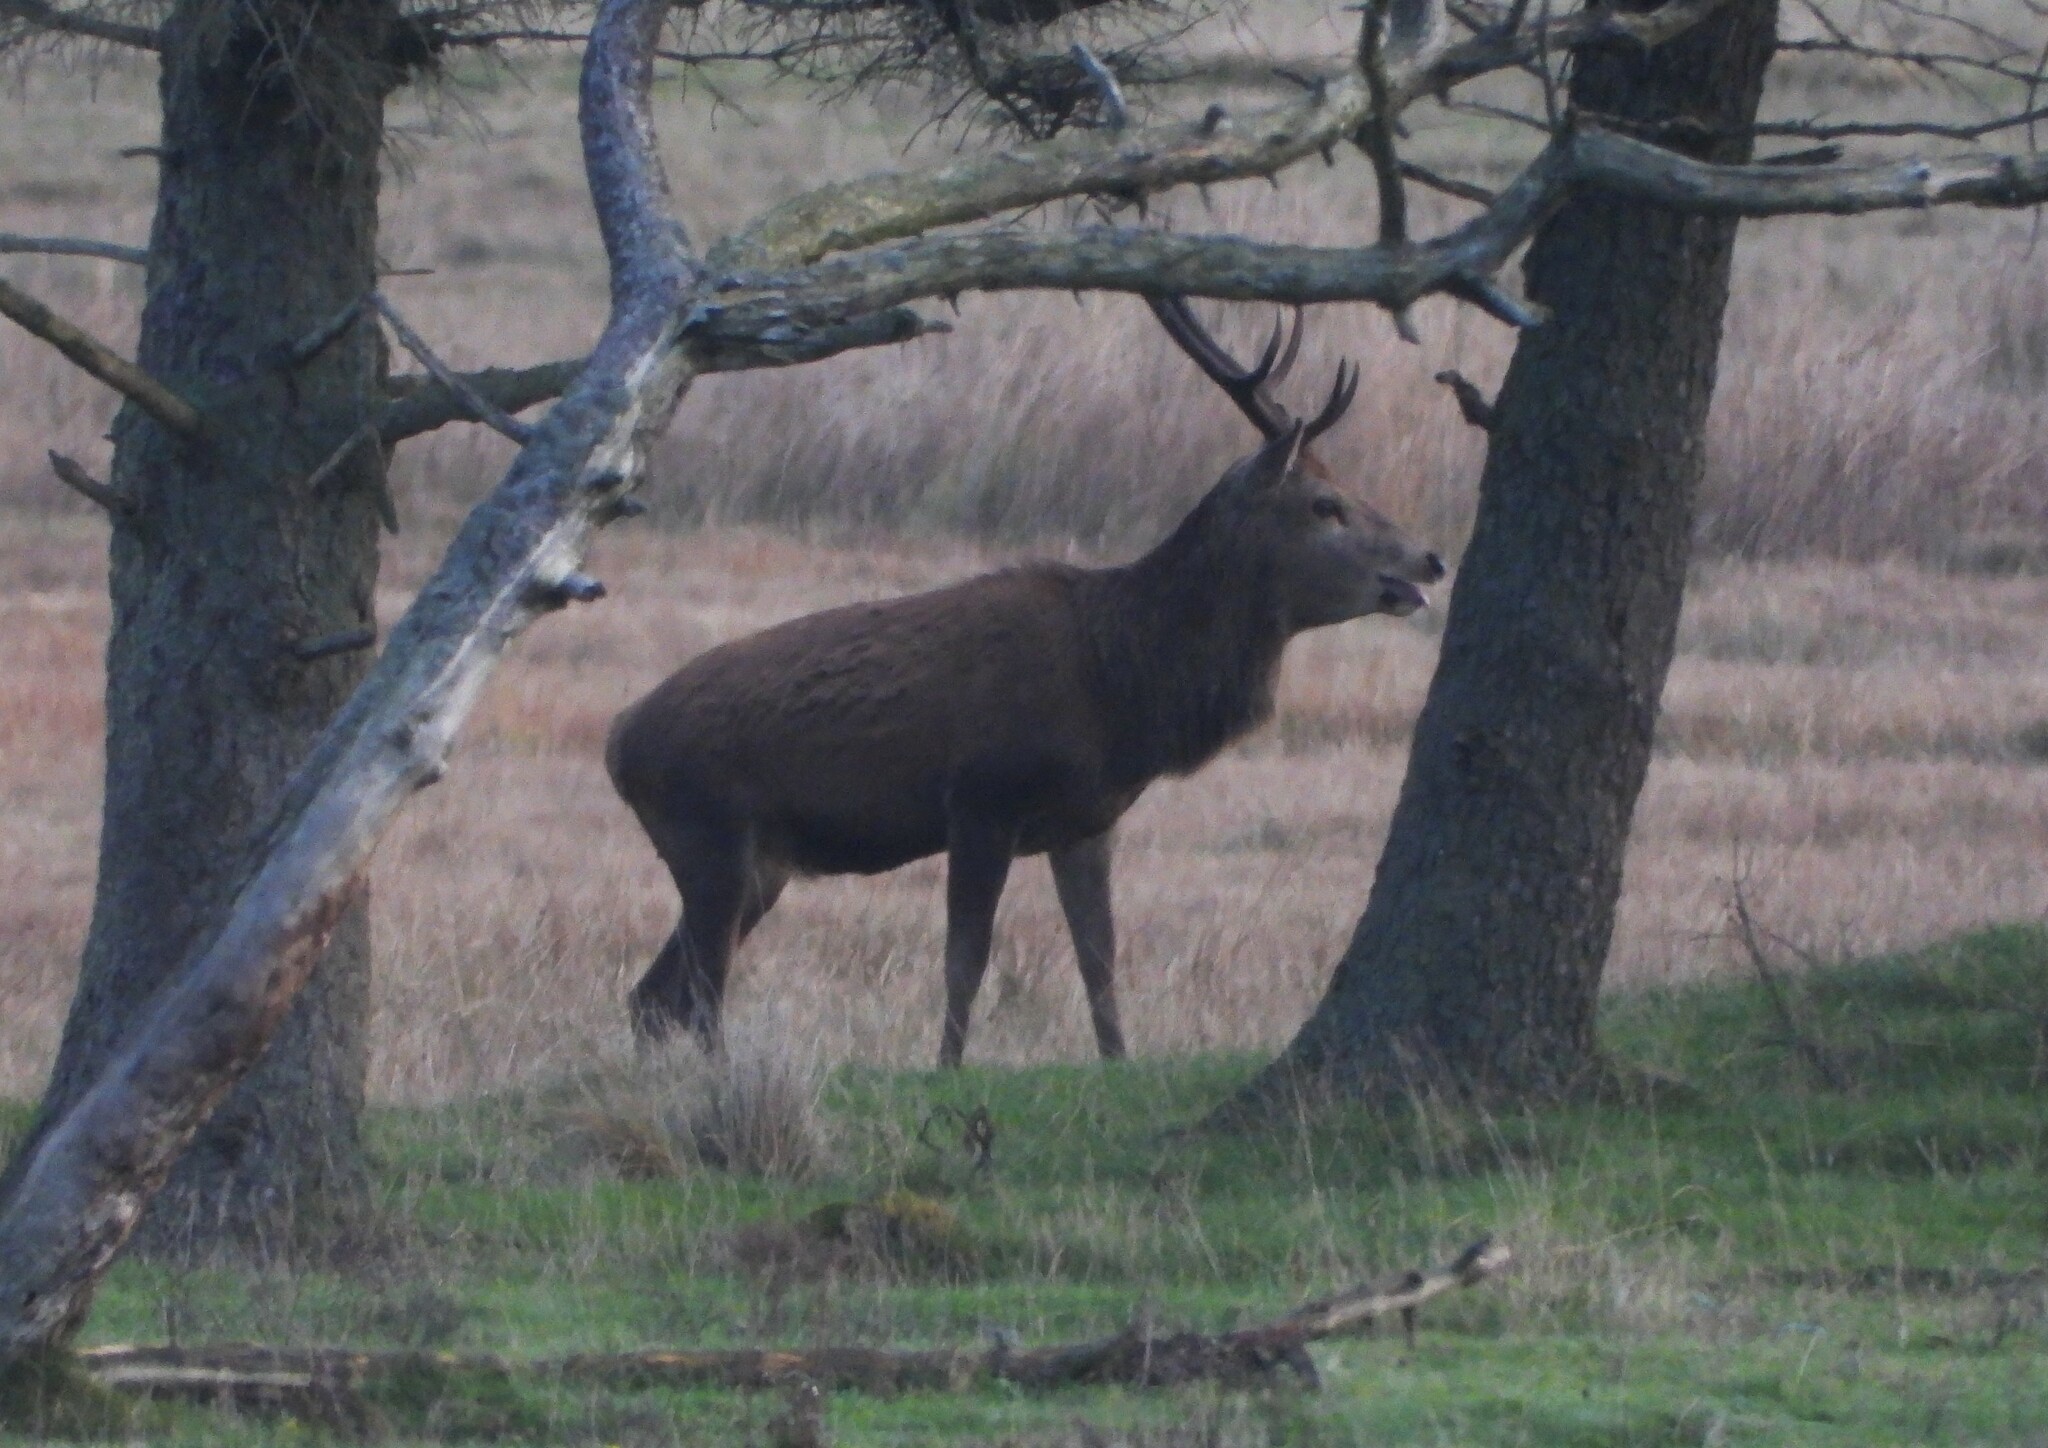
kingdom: Animalia
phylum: Chordata
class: Mammalia
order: Artiodactyla
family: Cervidae
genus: Cervus
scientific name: Cervus elaphus
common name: Red deer
